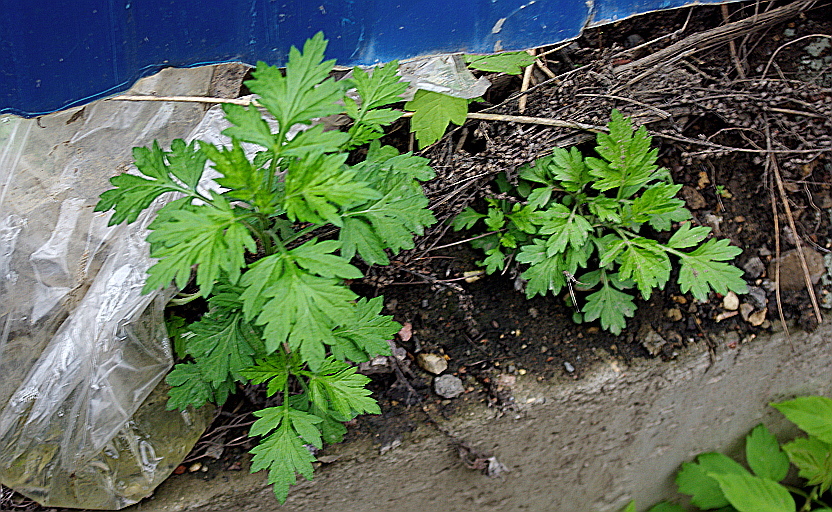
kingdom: Plantae
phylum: Tracheophyta
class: Magnoliopsida
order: Asterales
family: Asteraceae
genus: Artemisia
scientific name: Artemisia vulgaris
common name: Mugwort
